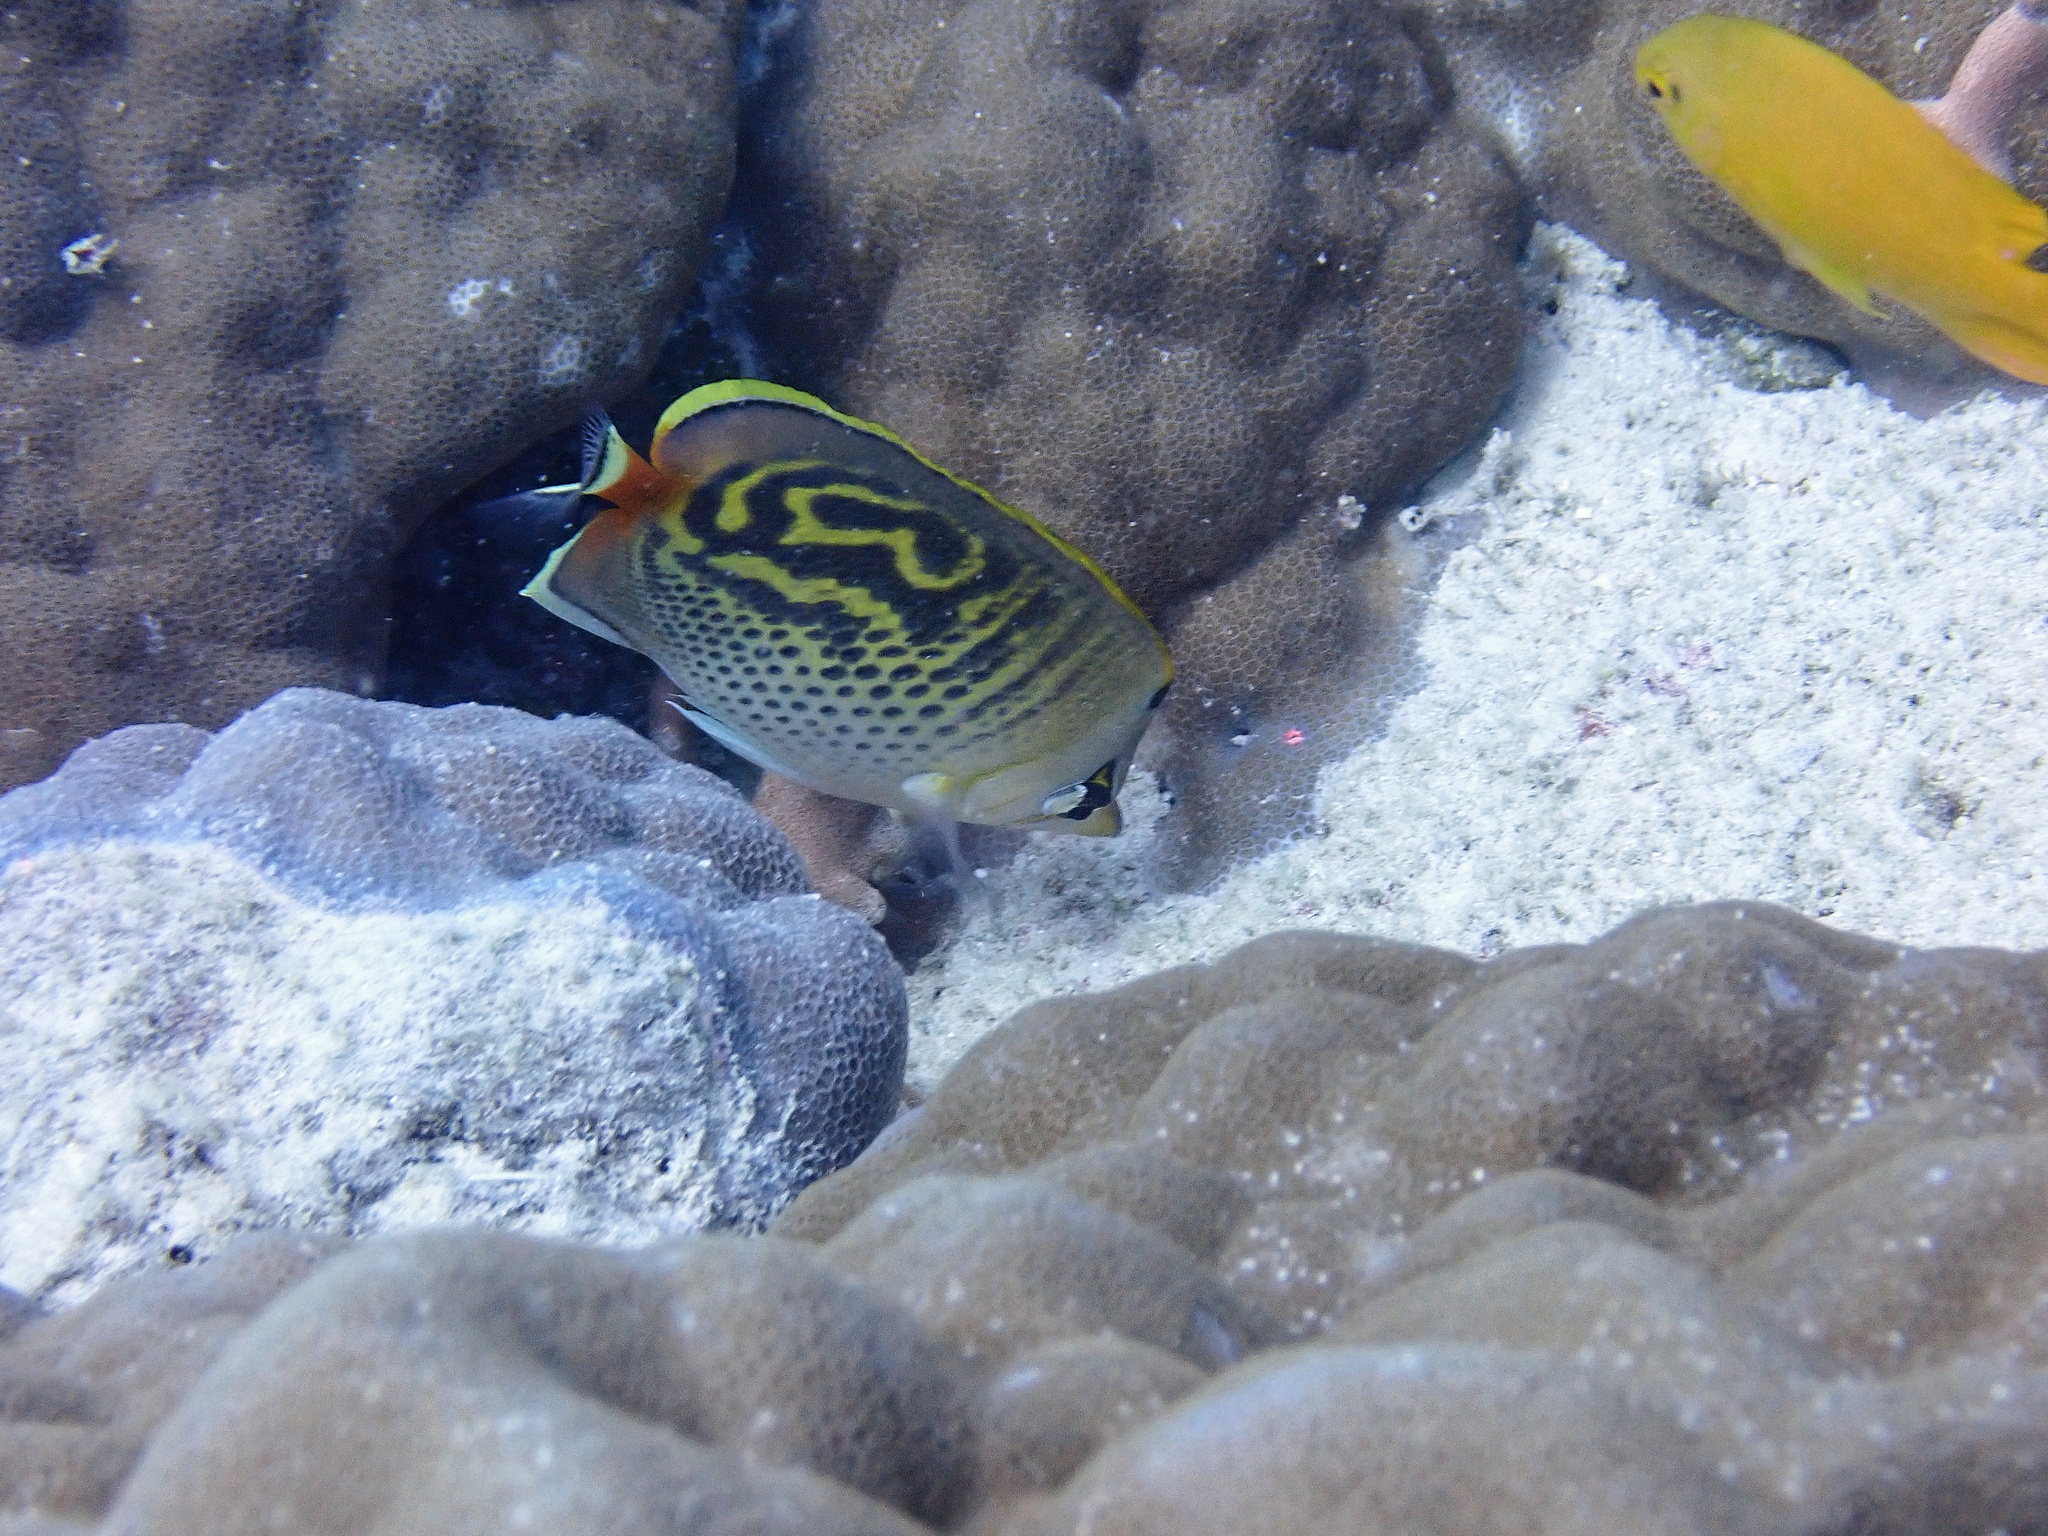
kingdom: Animalia
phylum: Chordata
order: Perciformes
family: Chaetodontidae
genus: Chaetodon
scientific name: Chaetodon punctatofasciatus
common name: Spot-banded butterflyfish
